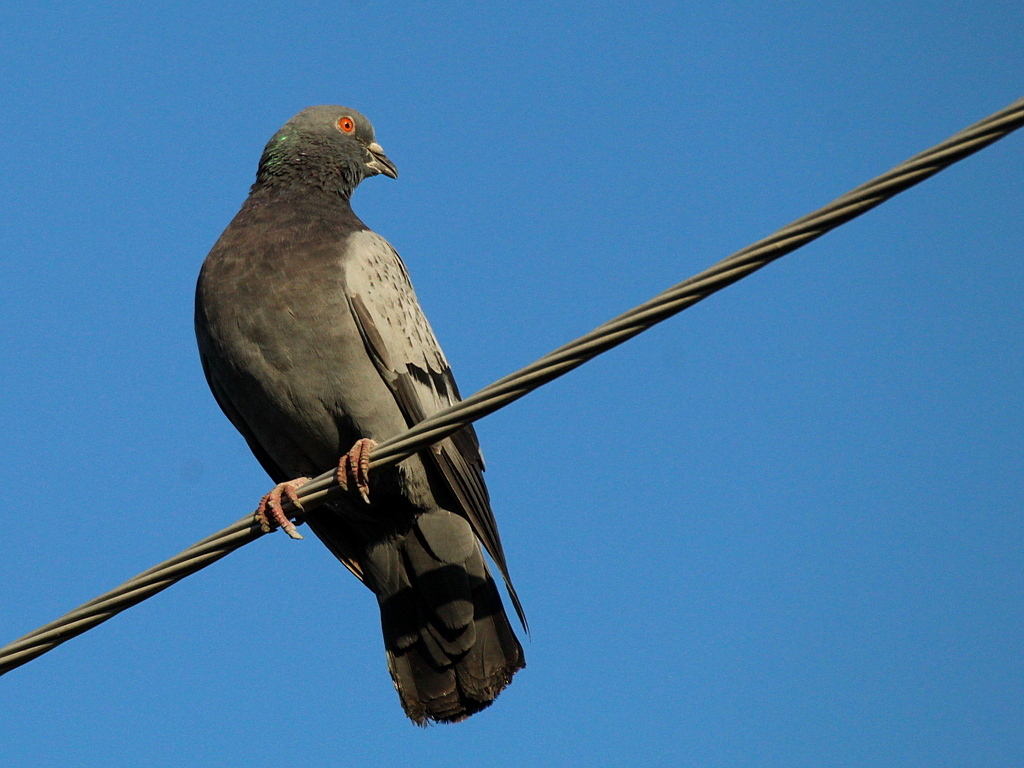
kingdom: Animalia
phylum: Chordata
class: Aves
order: Columbiformes
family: Columbidae
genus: Columba
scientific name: Columba livia
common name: Rock pigeon
